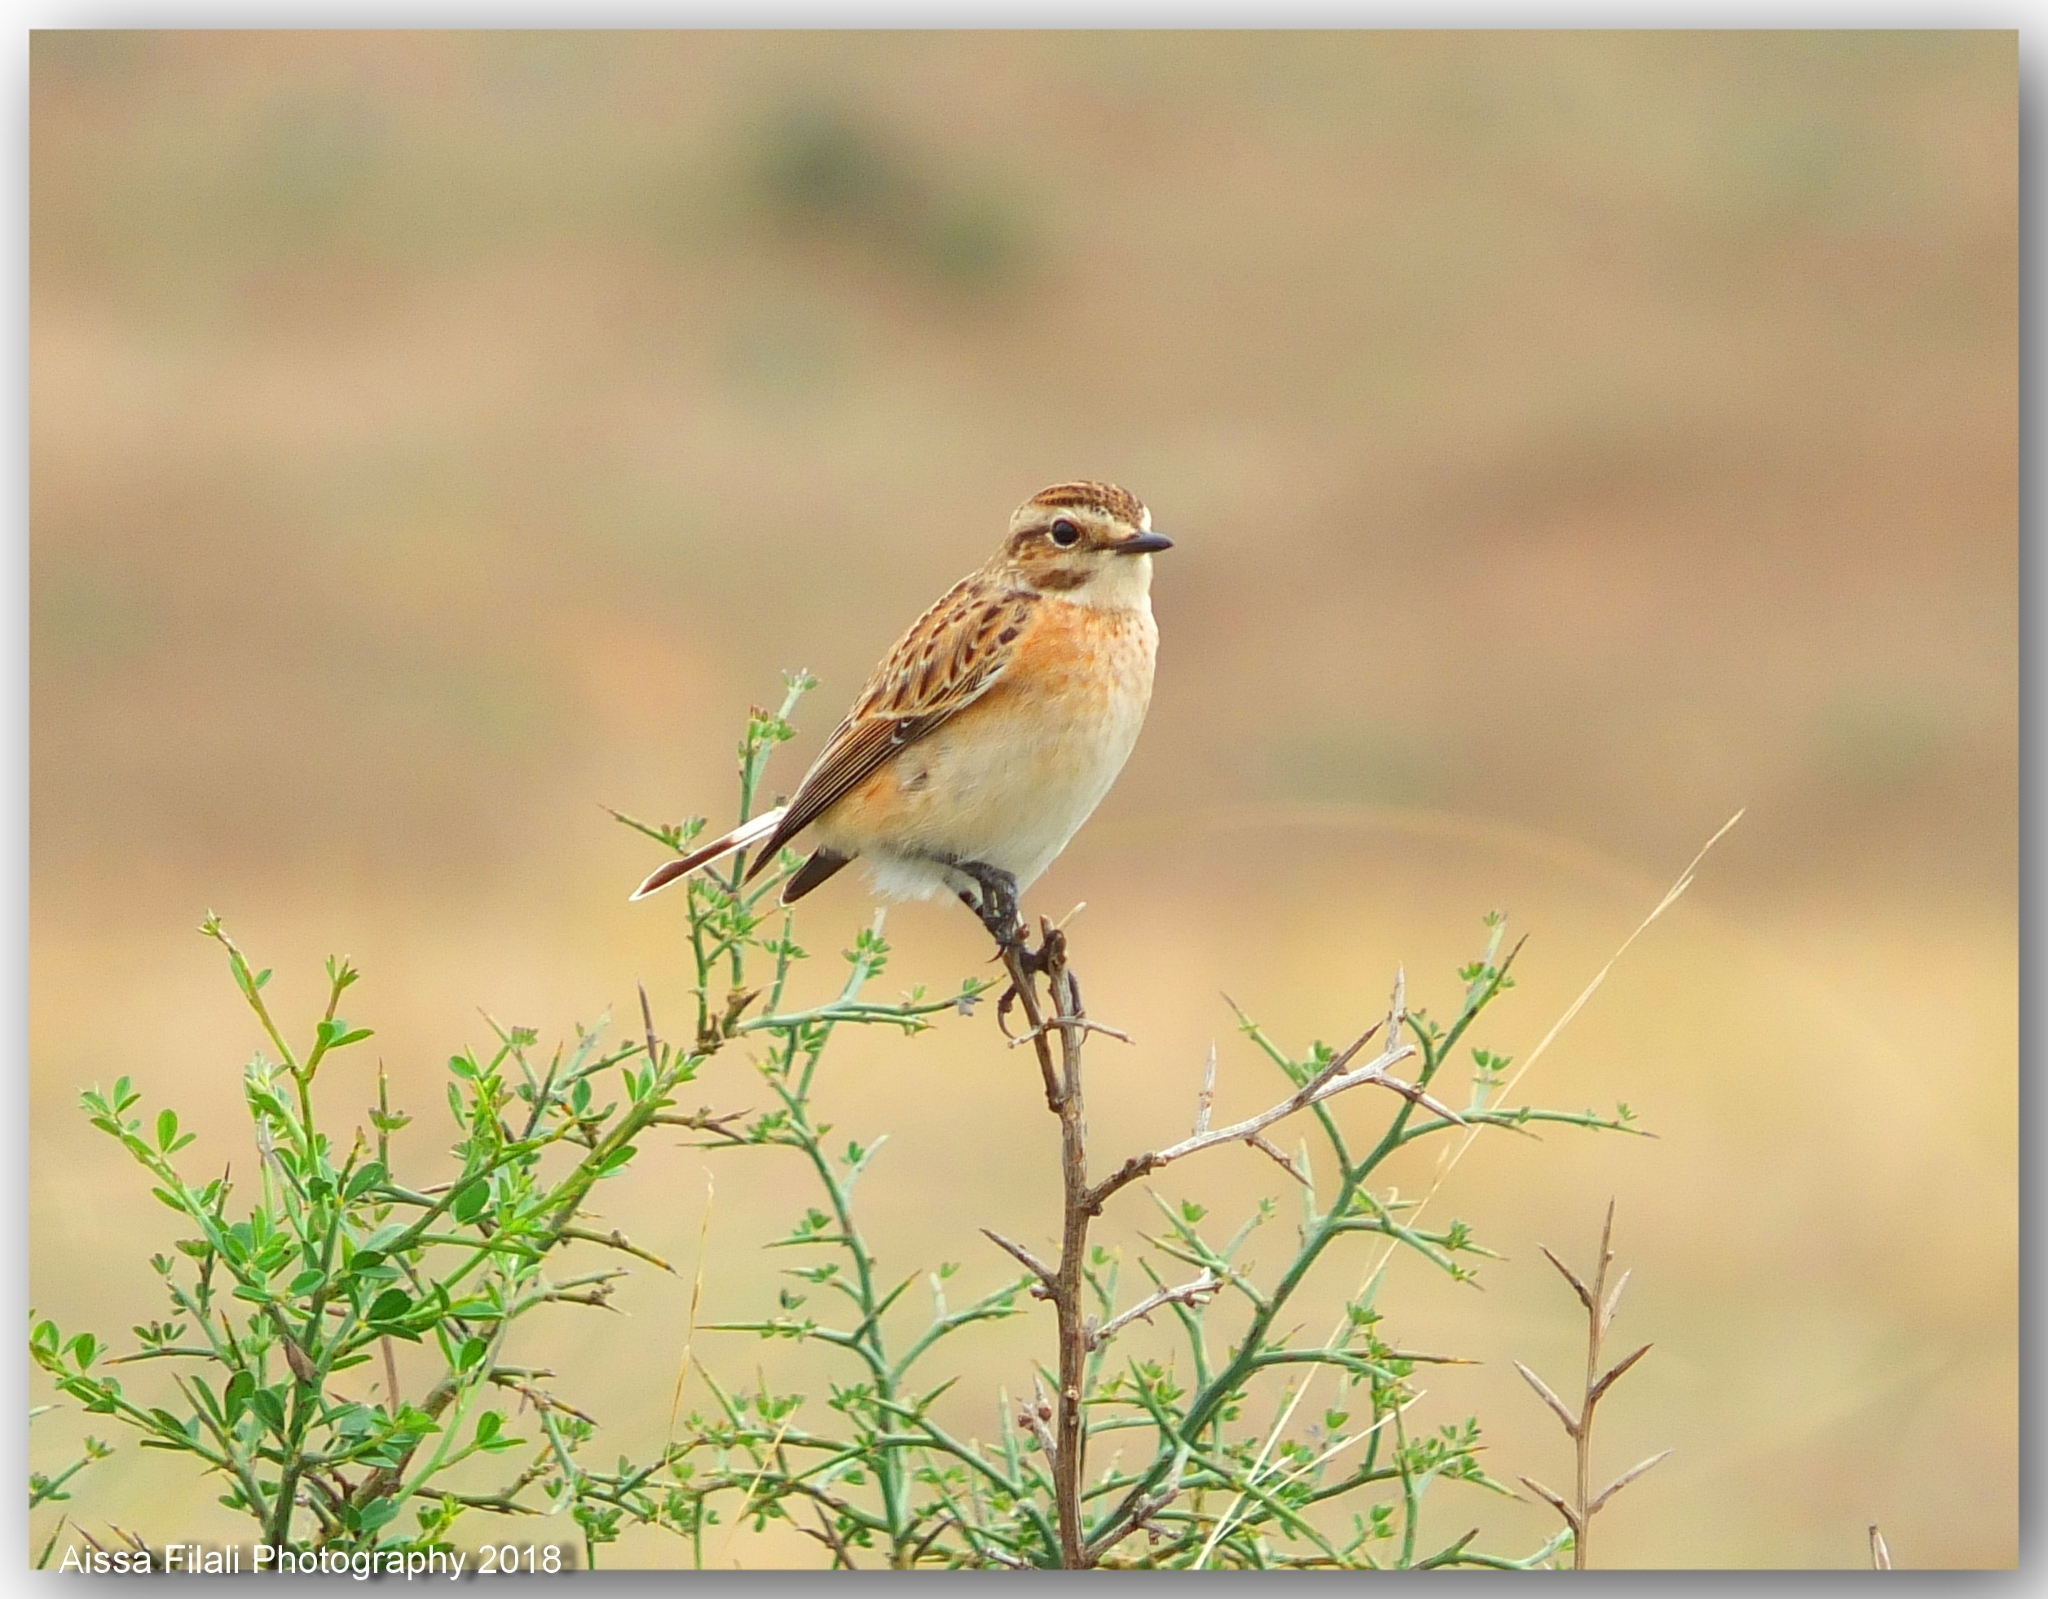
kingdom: Animalia
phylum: Chordata
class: Aves
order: Passeriformes
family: Muscicapidae
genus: Saxicola
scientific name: Saxicola rubetra
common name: Whinchat
